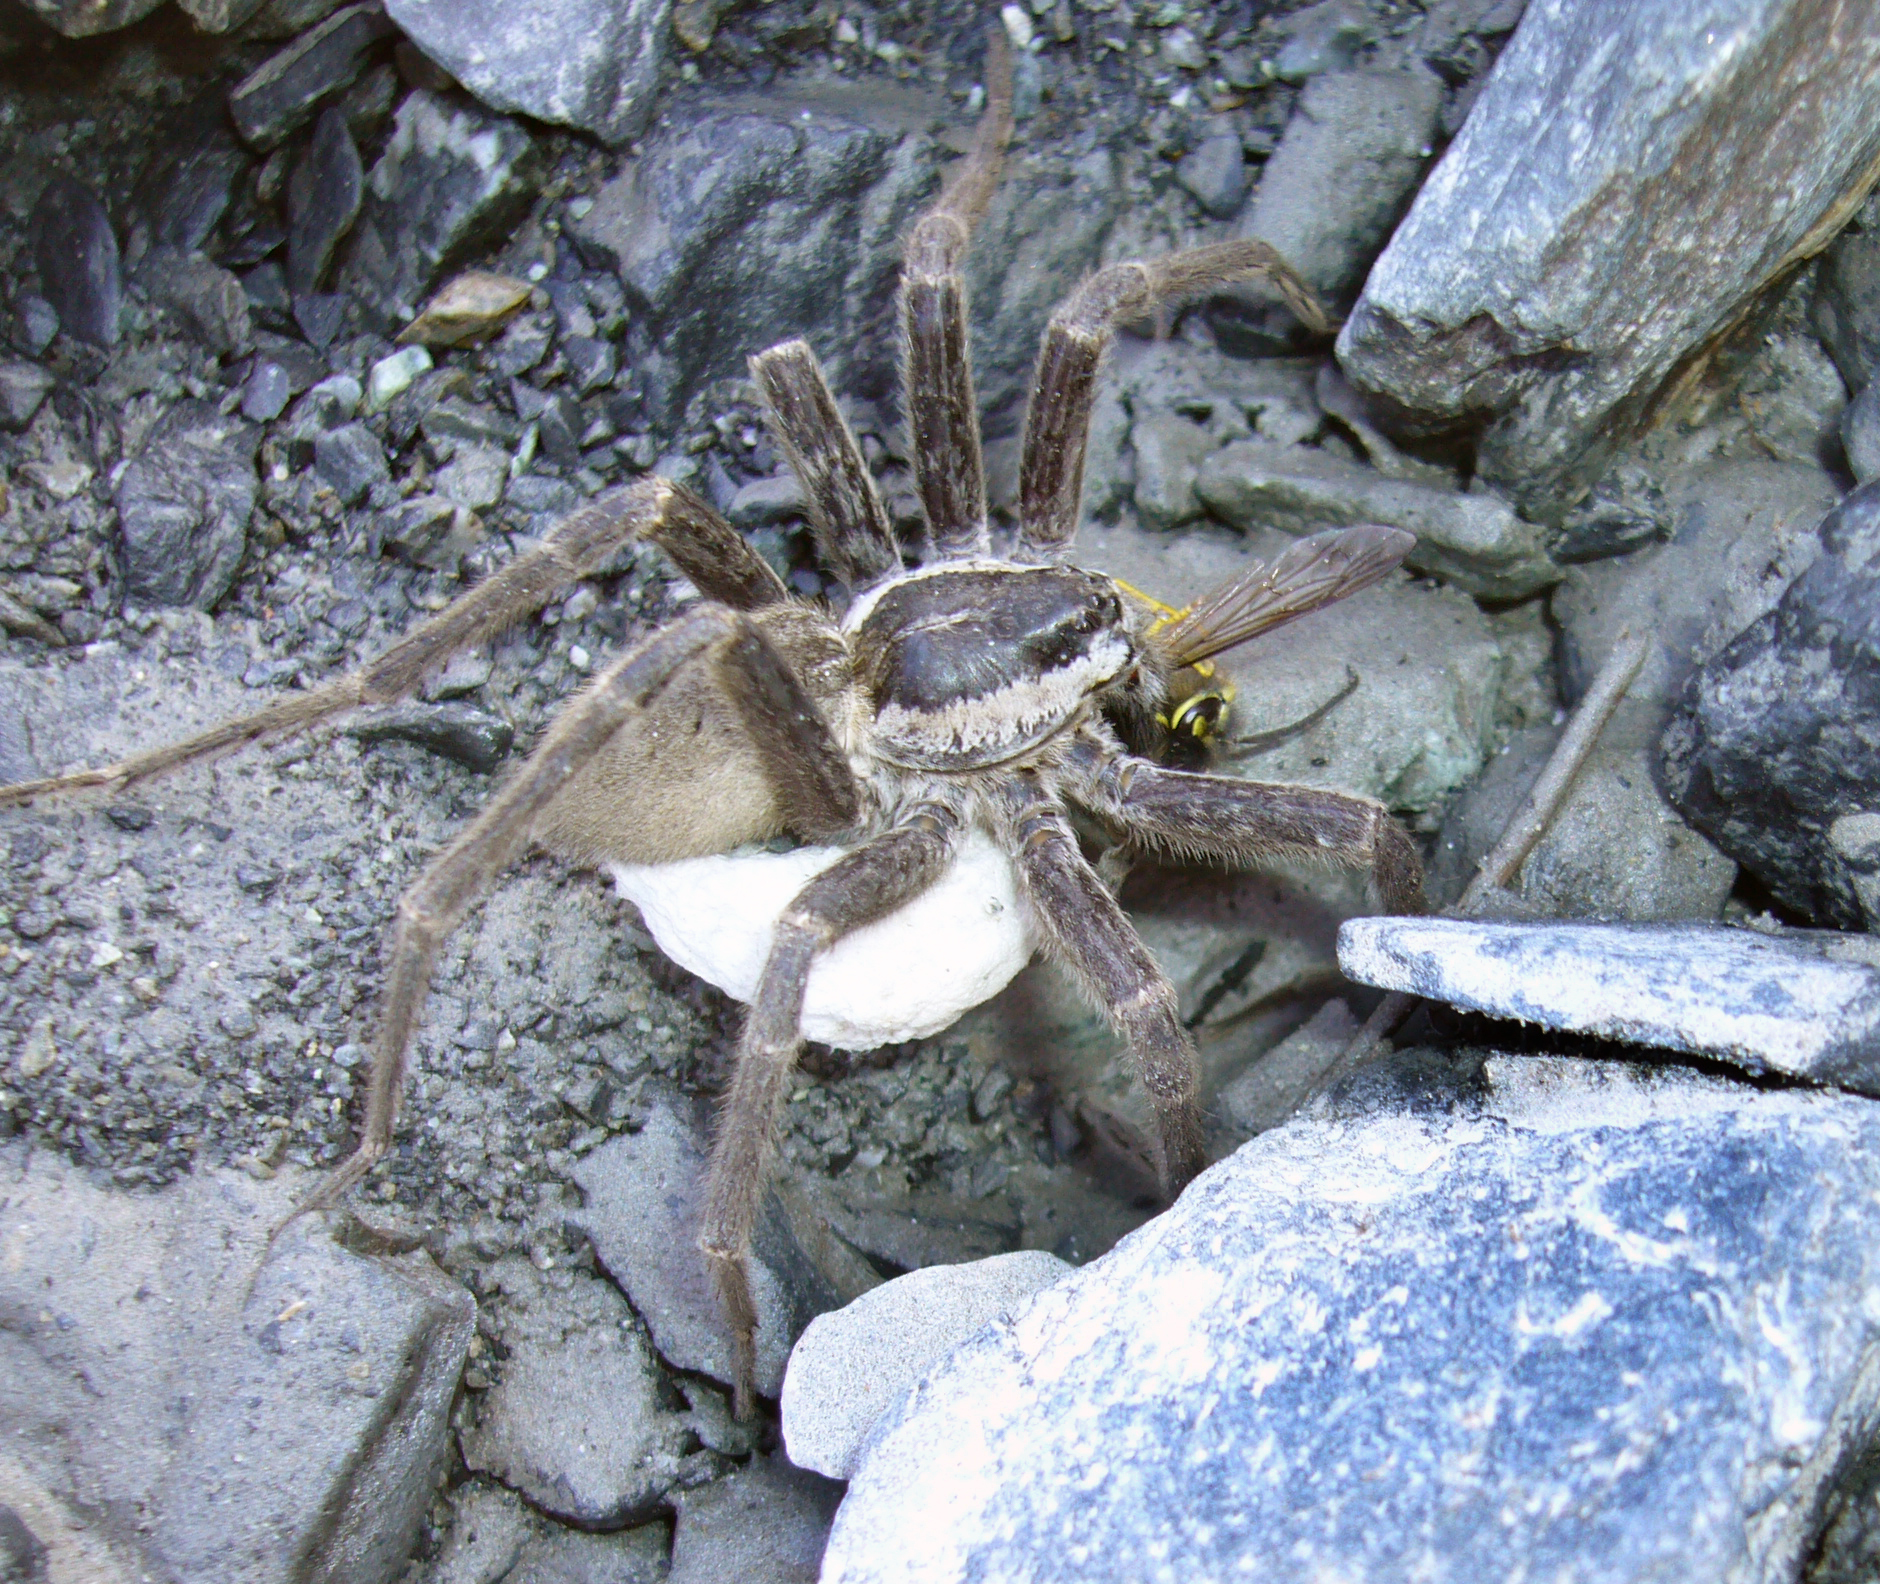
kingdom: Animalia
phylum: Arthropoda
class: Arachnida
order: Araneae
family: Pisauridae
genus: Dolomedes
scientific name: Dolomedes aquaticus
